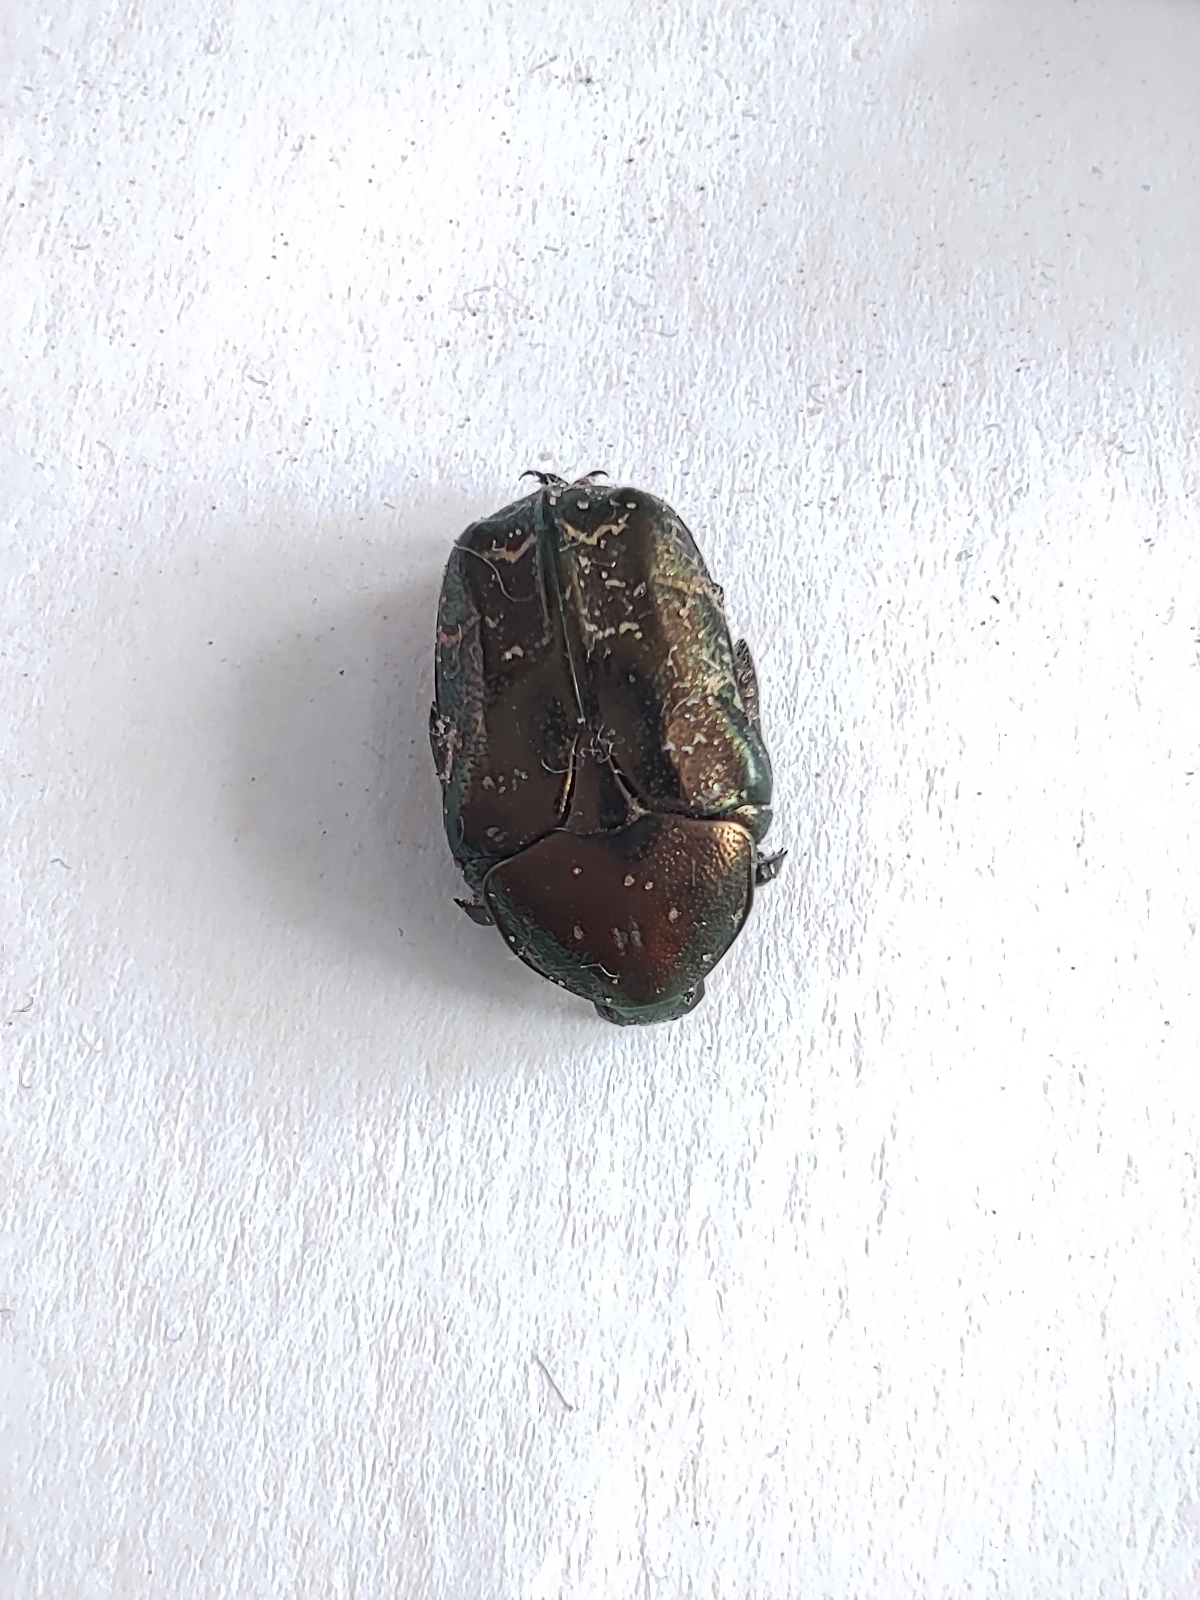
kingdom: Animalia
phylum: Arthropoda
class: Insecta
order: Coleoptera
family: Scarabaeidae
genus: Cetonia
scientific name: Cetonia aurata
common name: Rose chafer
